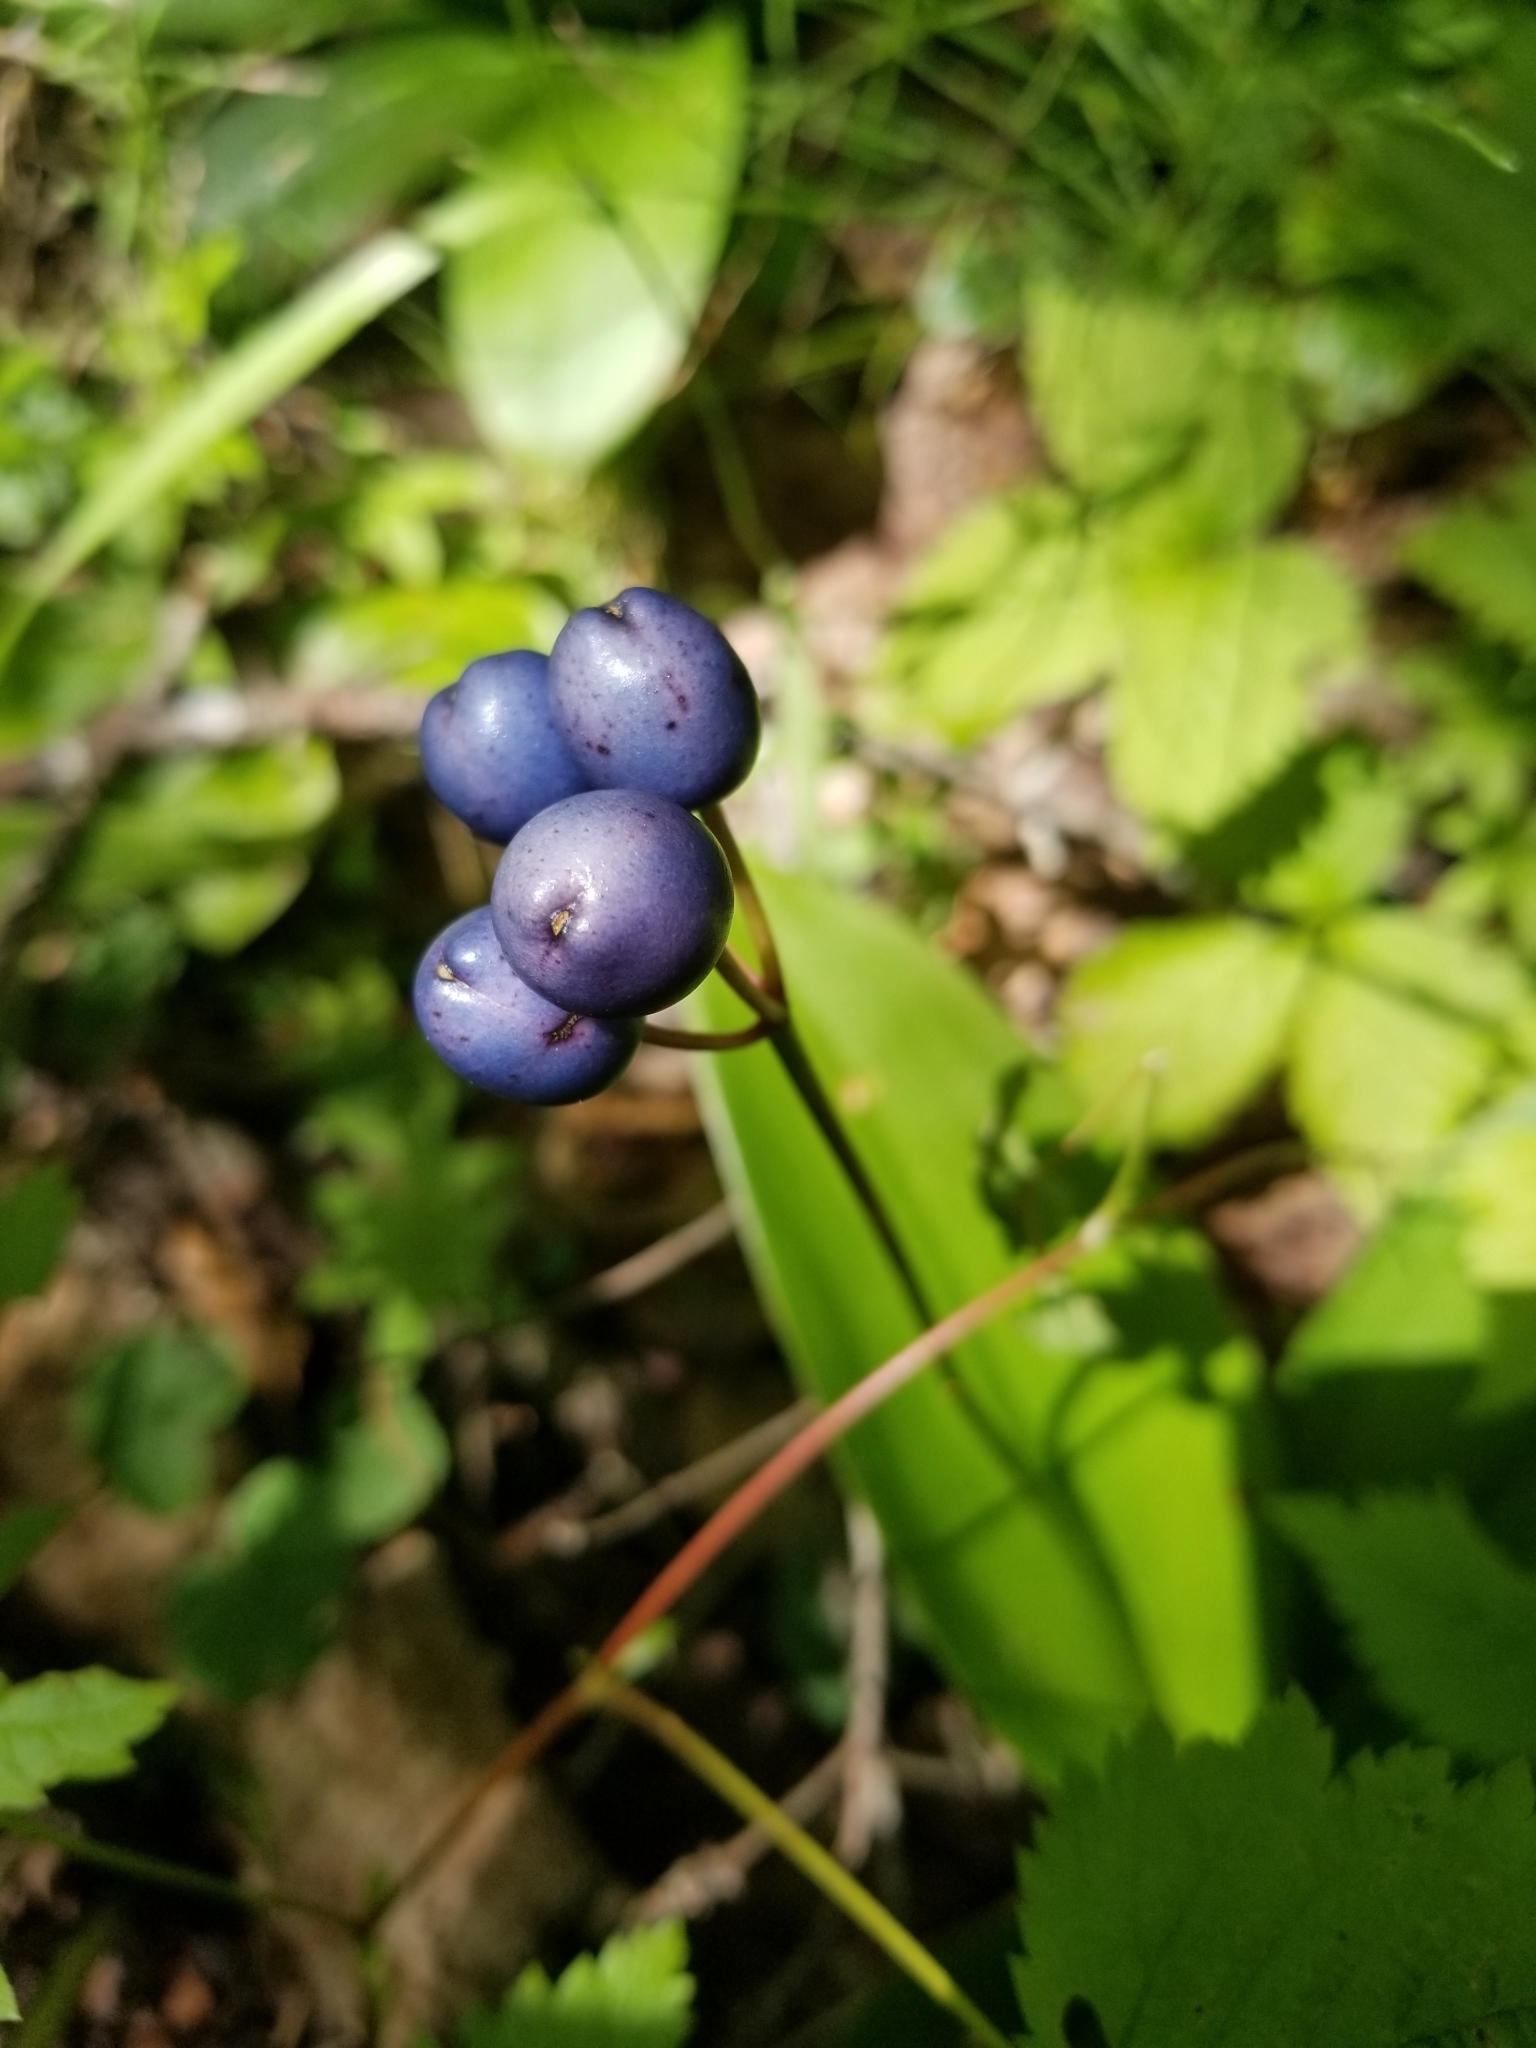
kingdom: Plantae
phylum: Tracheophyta
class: Liliopsida
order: Liliales
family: Liliaceae
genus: Clintonia
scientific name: Clintonia borealis
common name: Yellow clintonia
